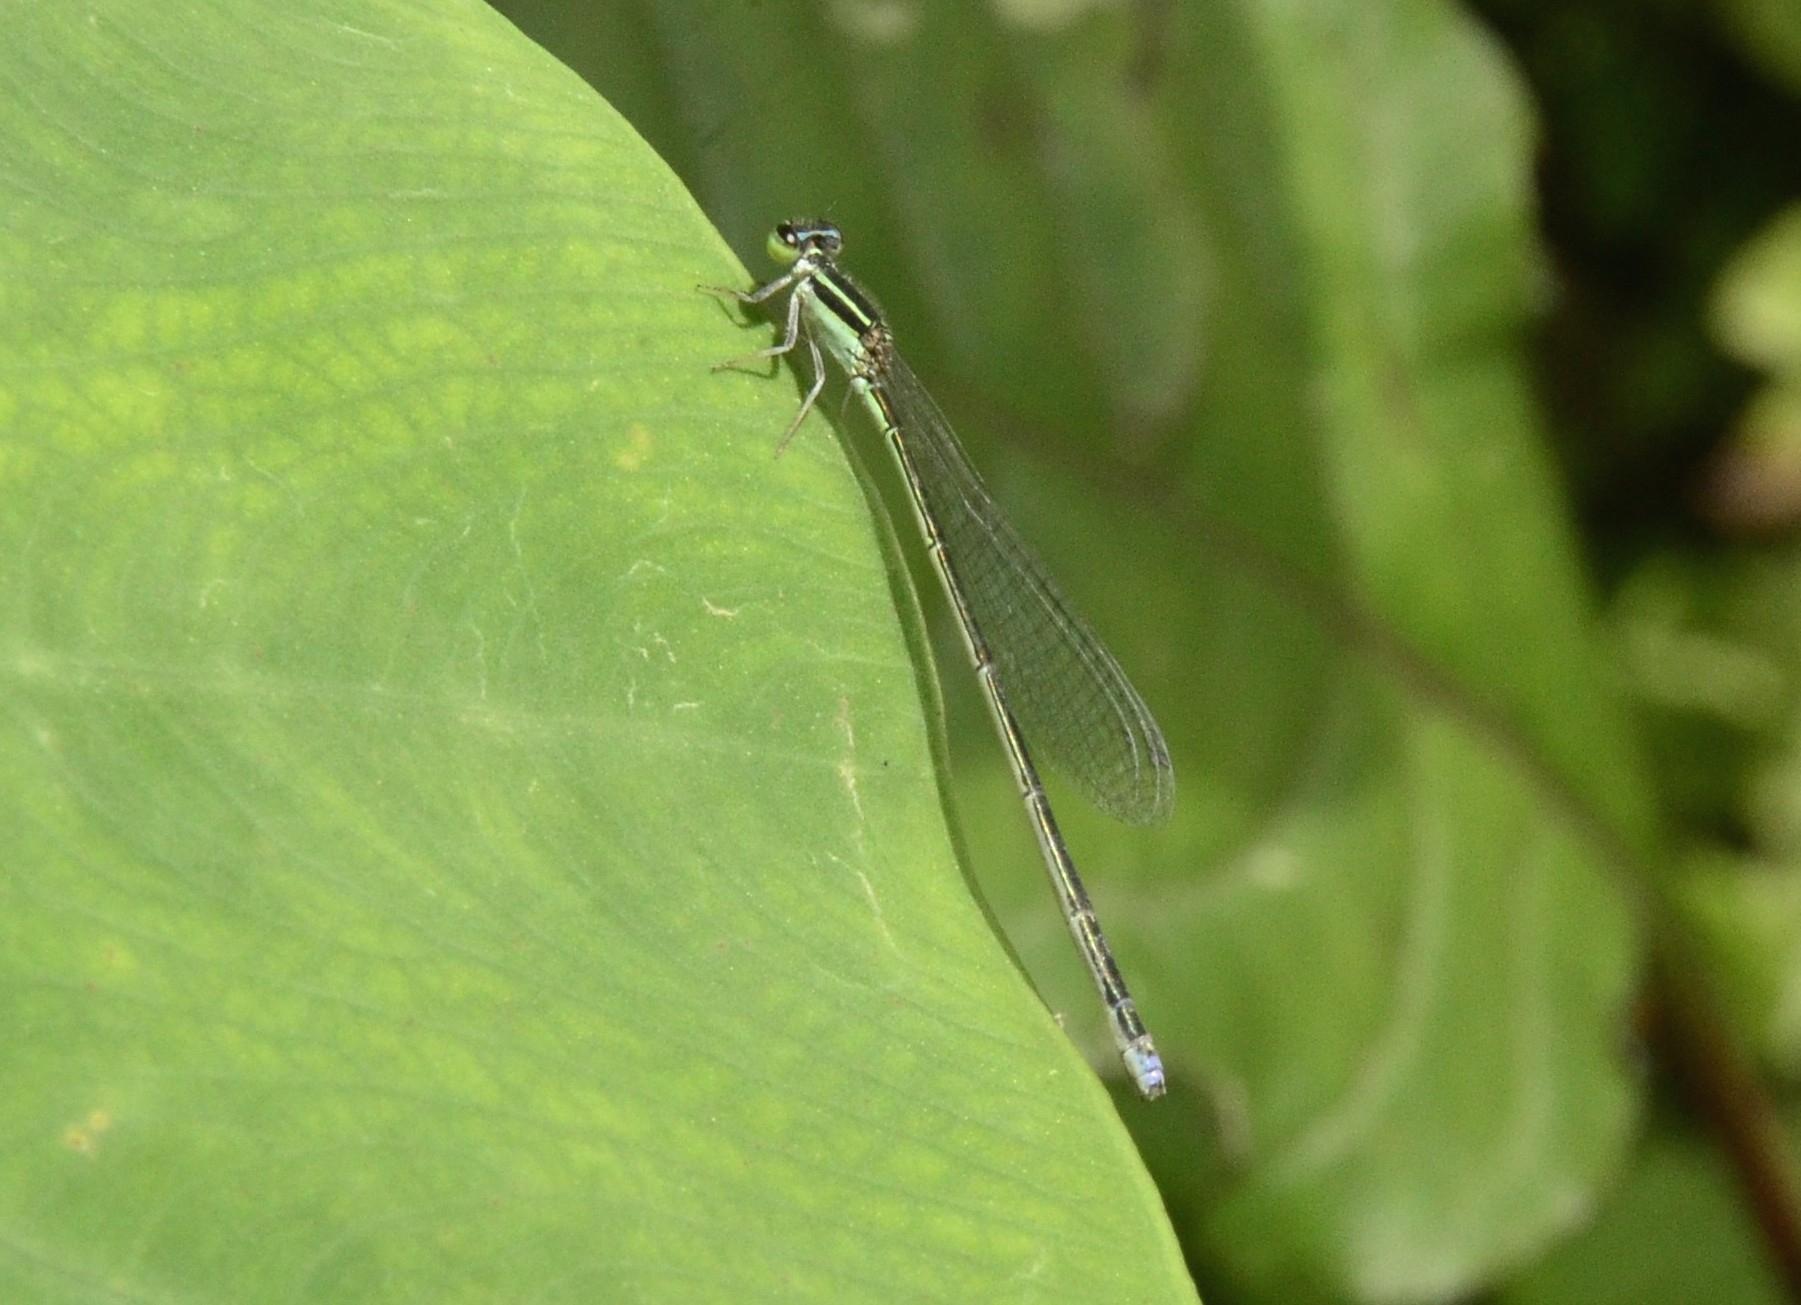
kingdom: Animalia
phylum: Arthropoda
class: Insecta
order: Odonata
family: Coenagrionidae
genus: Aciagrion
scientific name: Aciagrion occidentale
